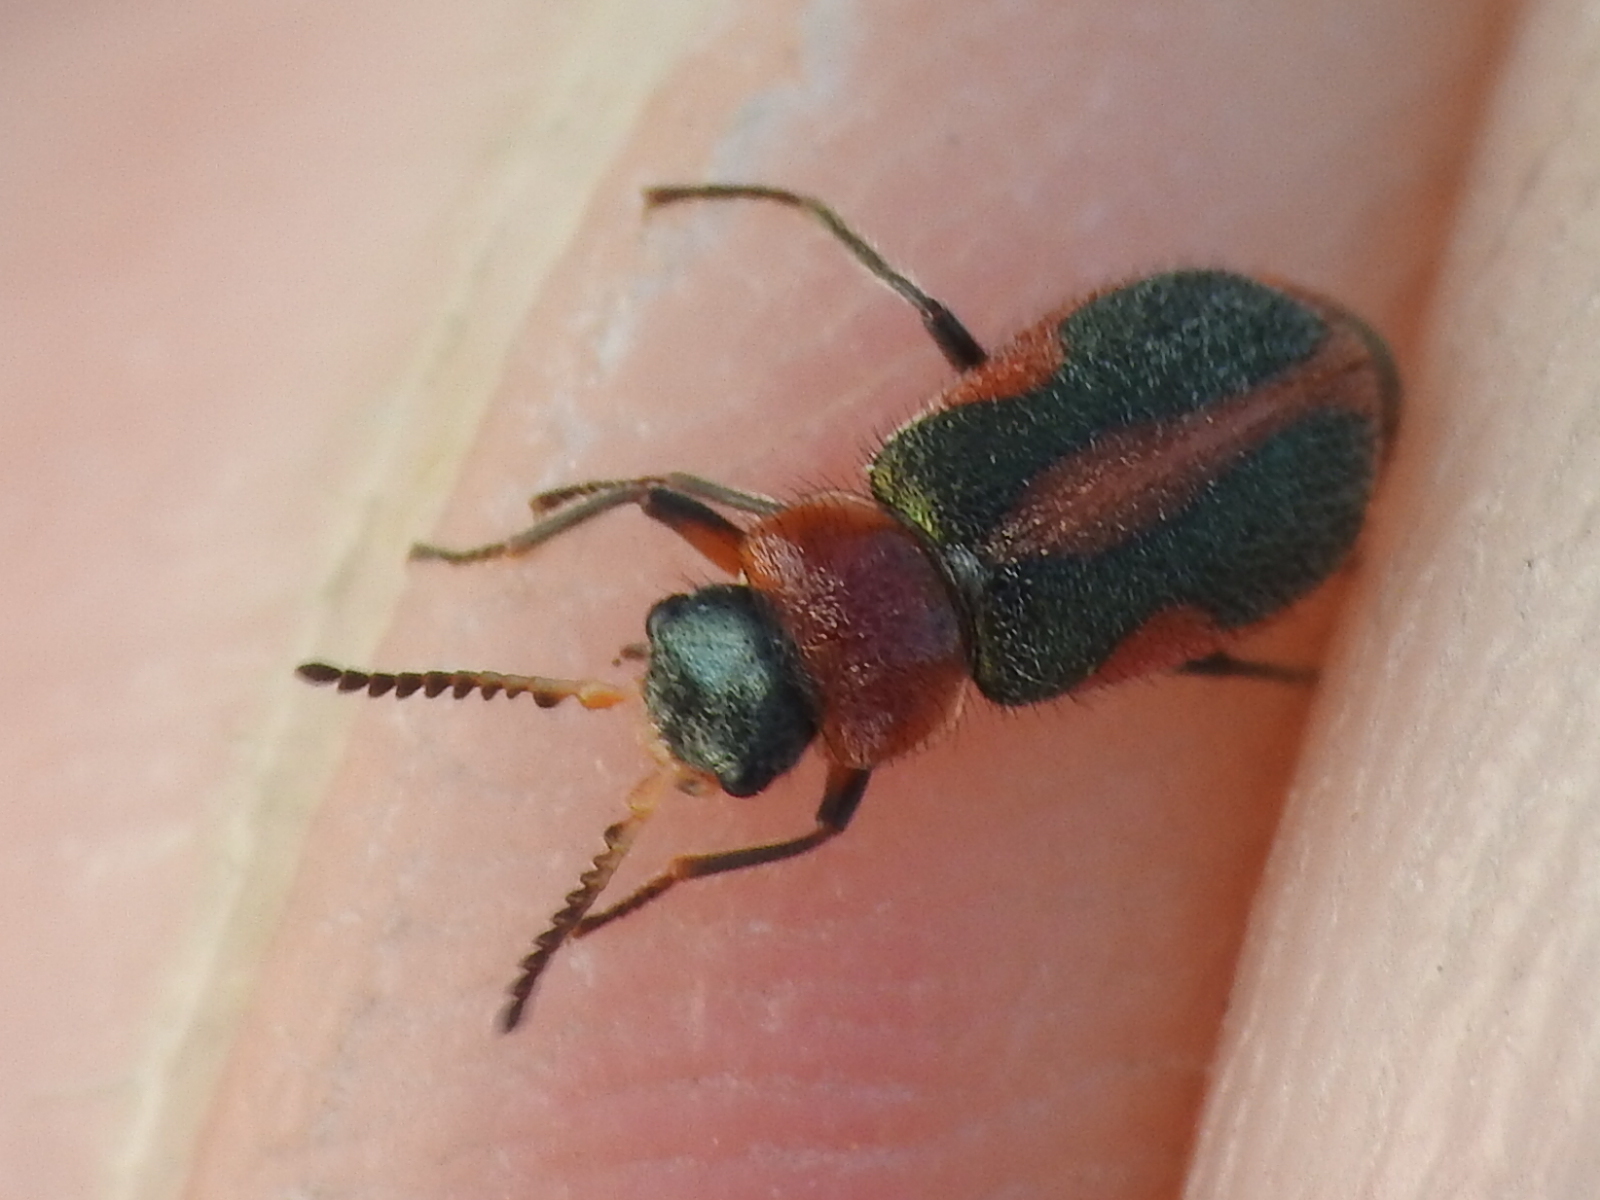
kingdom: Animalia
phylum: Arthropoda
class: Insecta
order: Coleoptera
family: Melyridae
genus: Collops
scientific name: Collops vittatus
